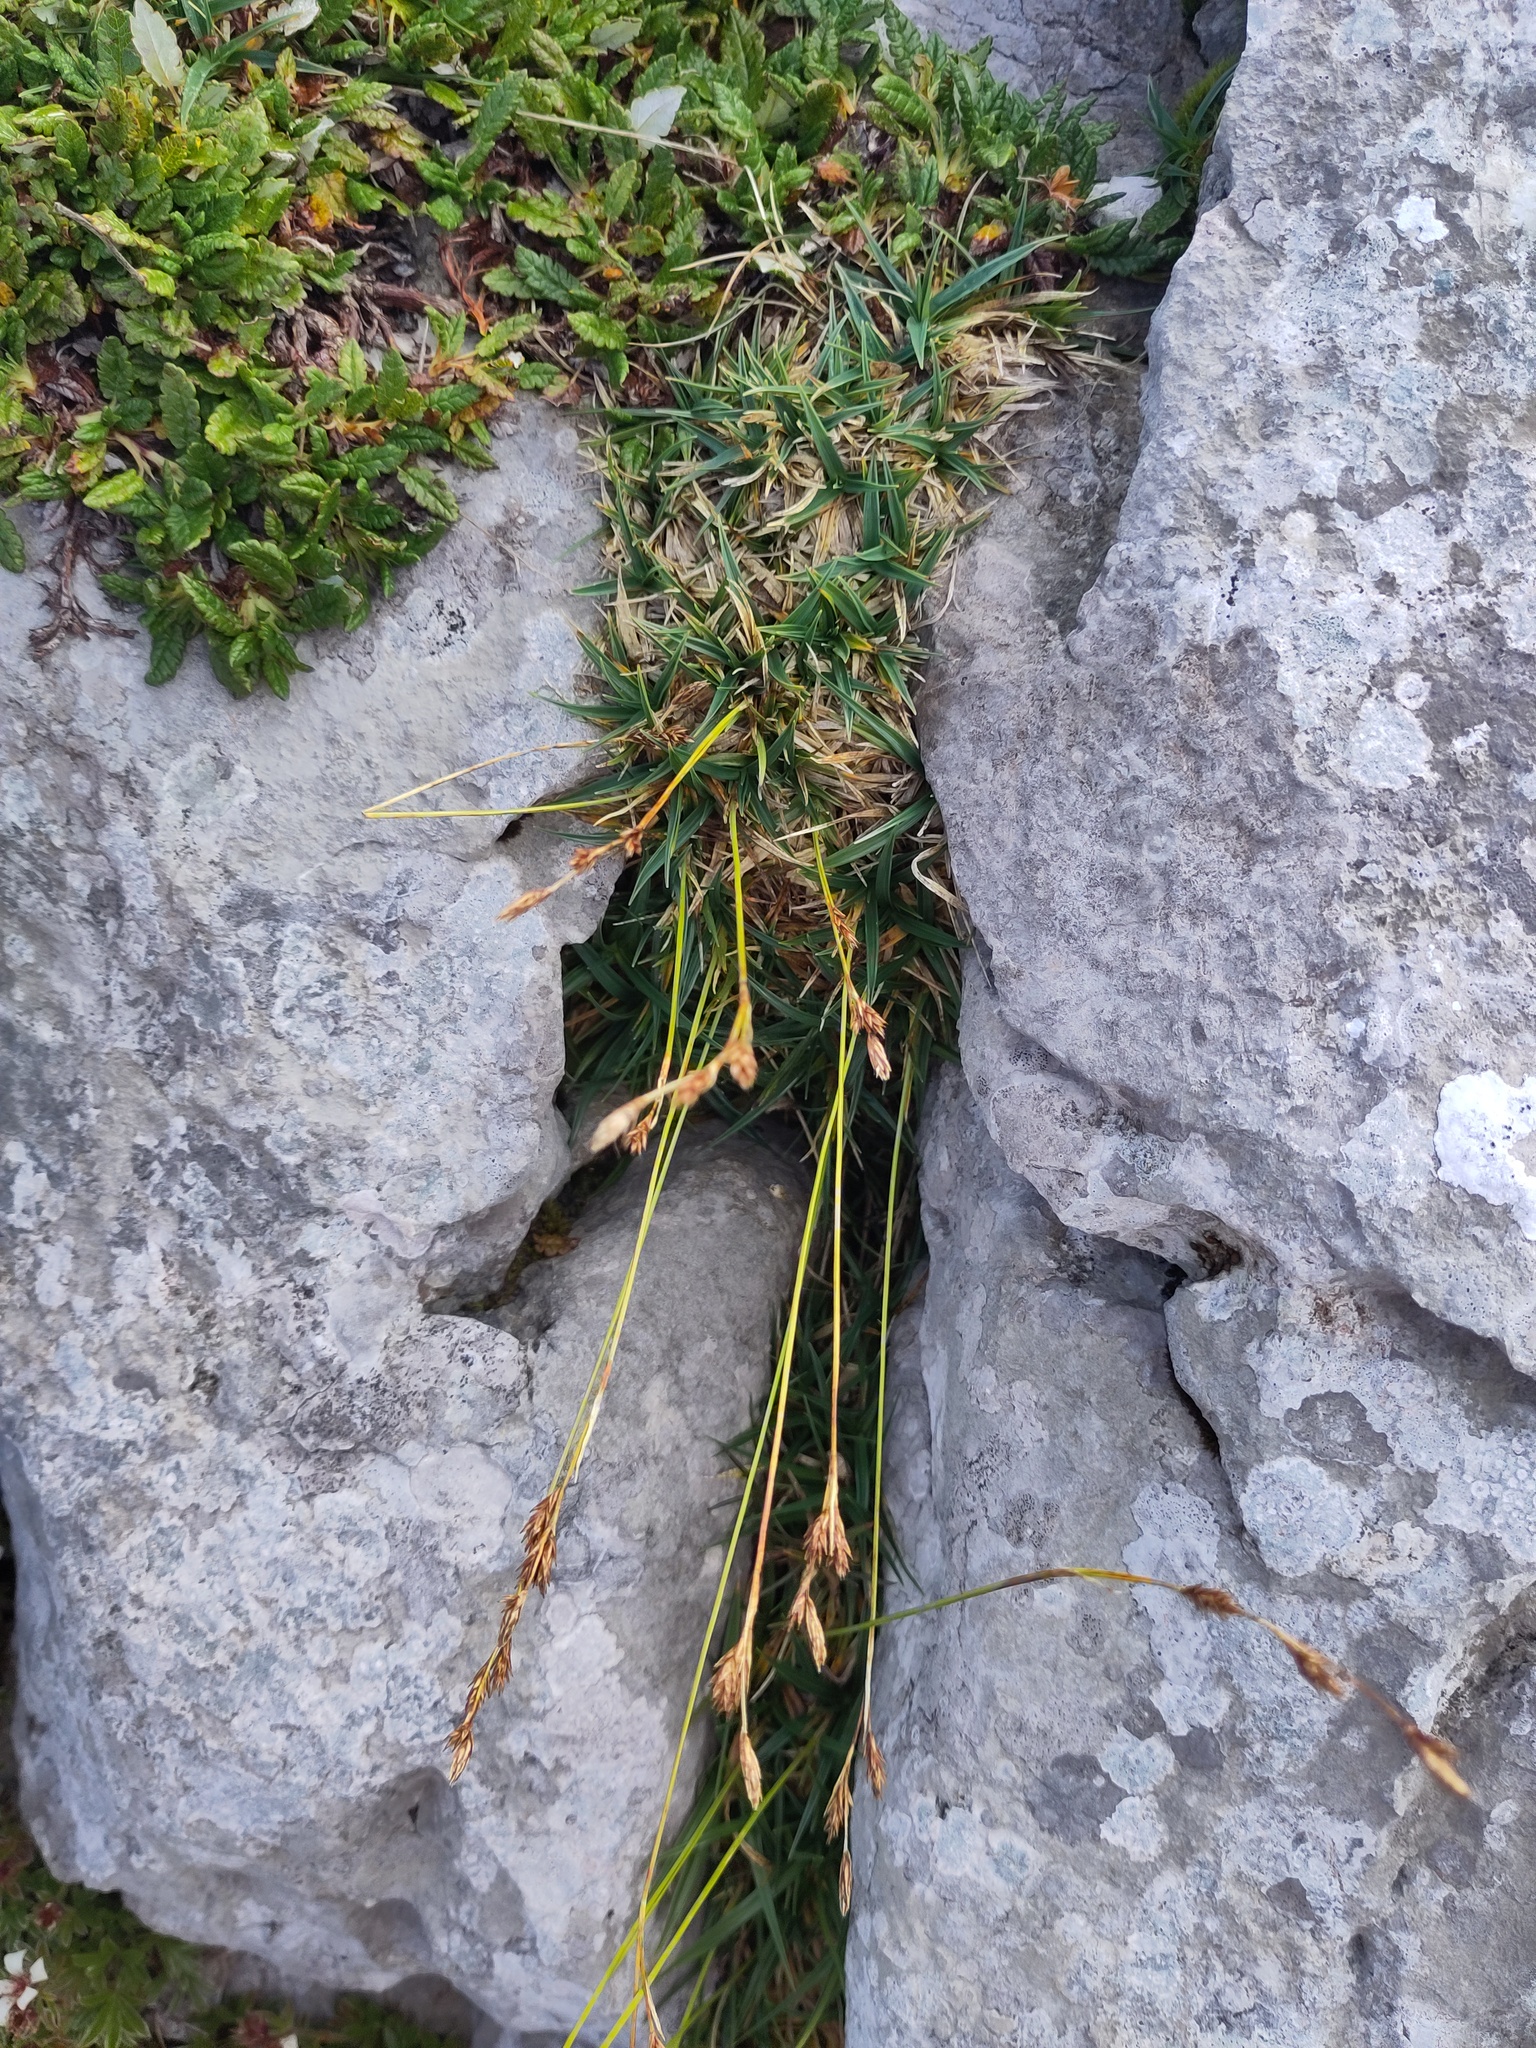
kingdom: Plantae
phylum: Tracheophyta
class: Liliopsida
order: Poales
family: Cyperaceae
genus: Carex
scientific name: Carex firma
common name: Dwarf pillow sedge
